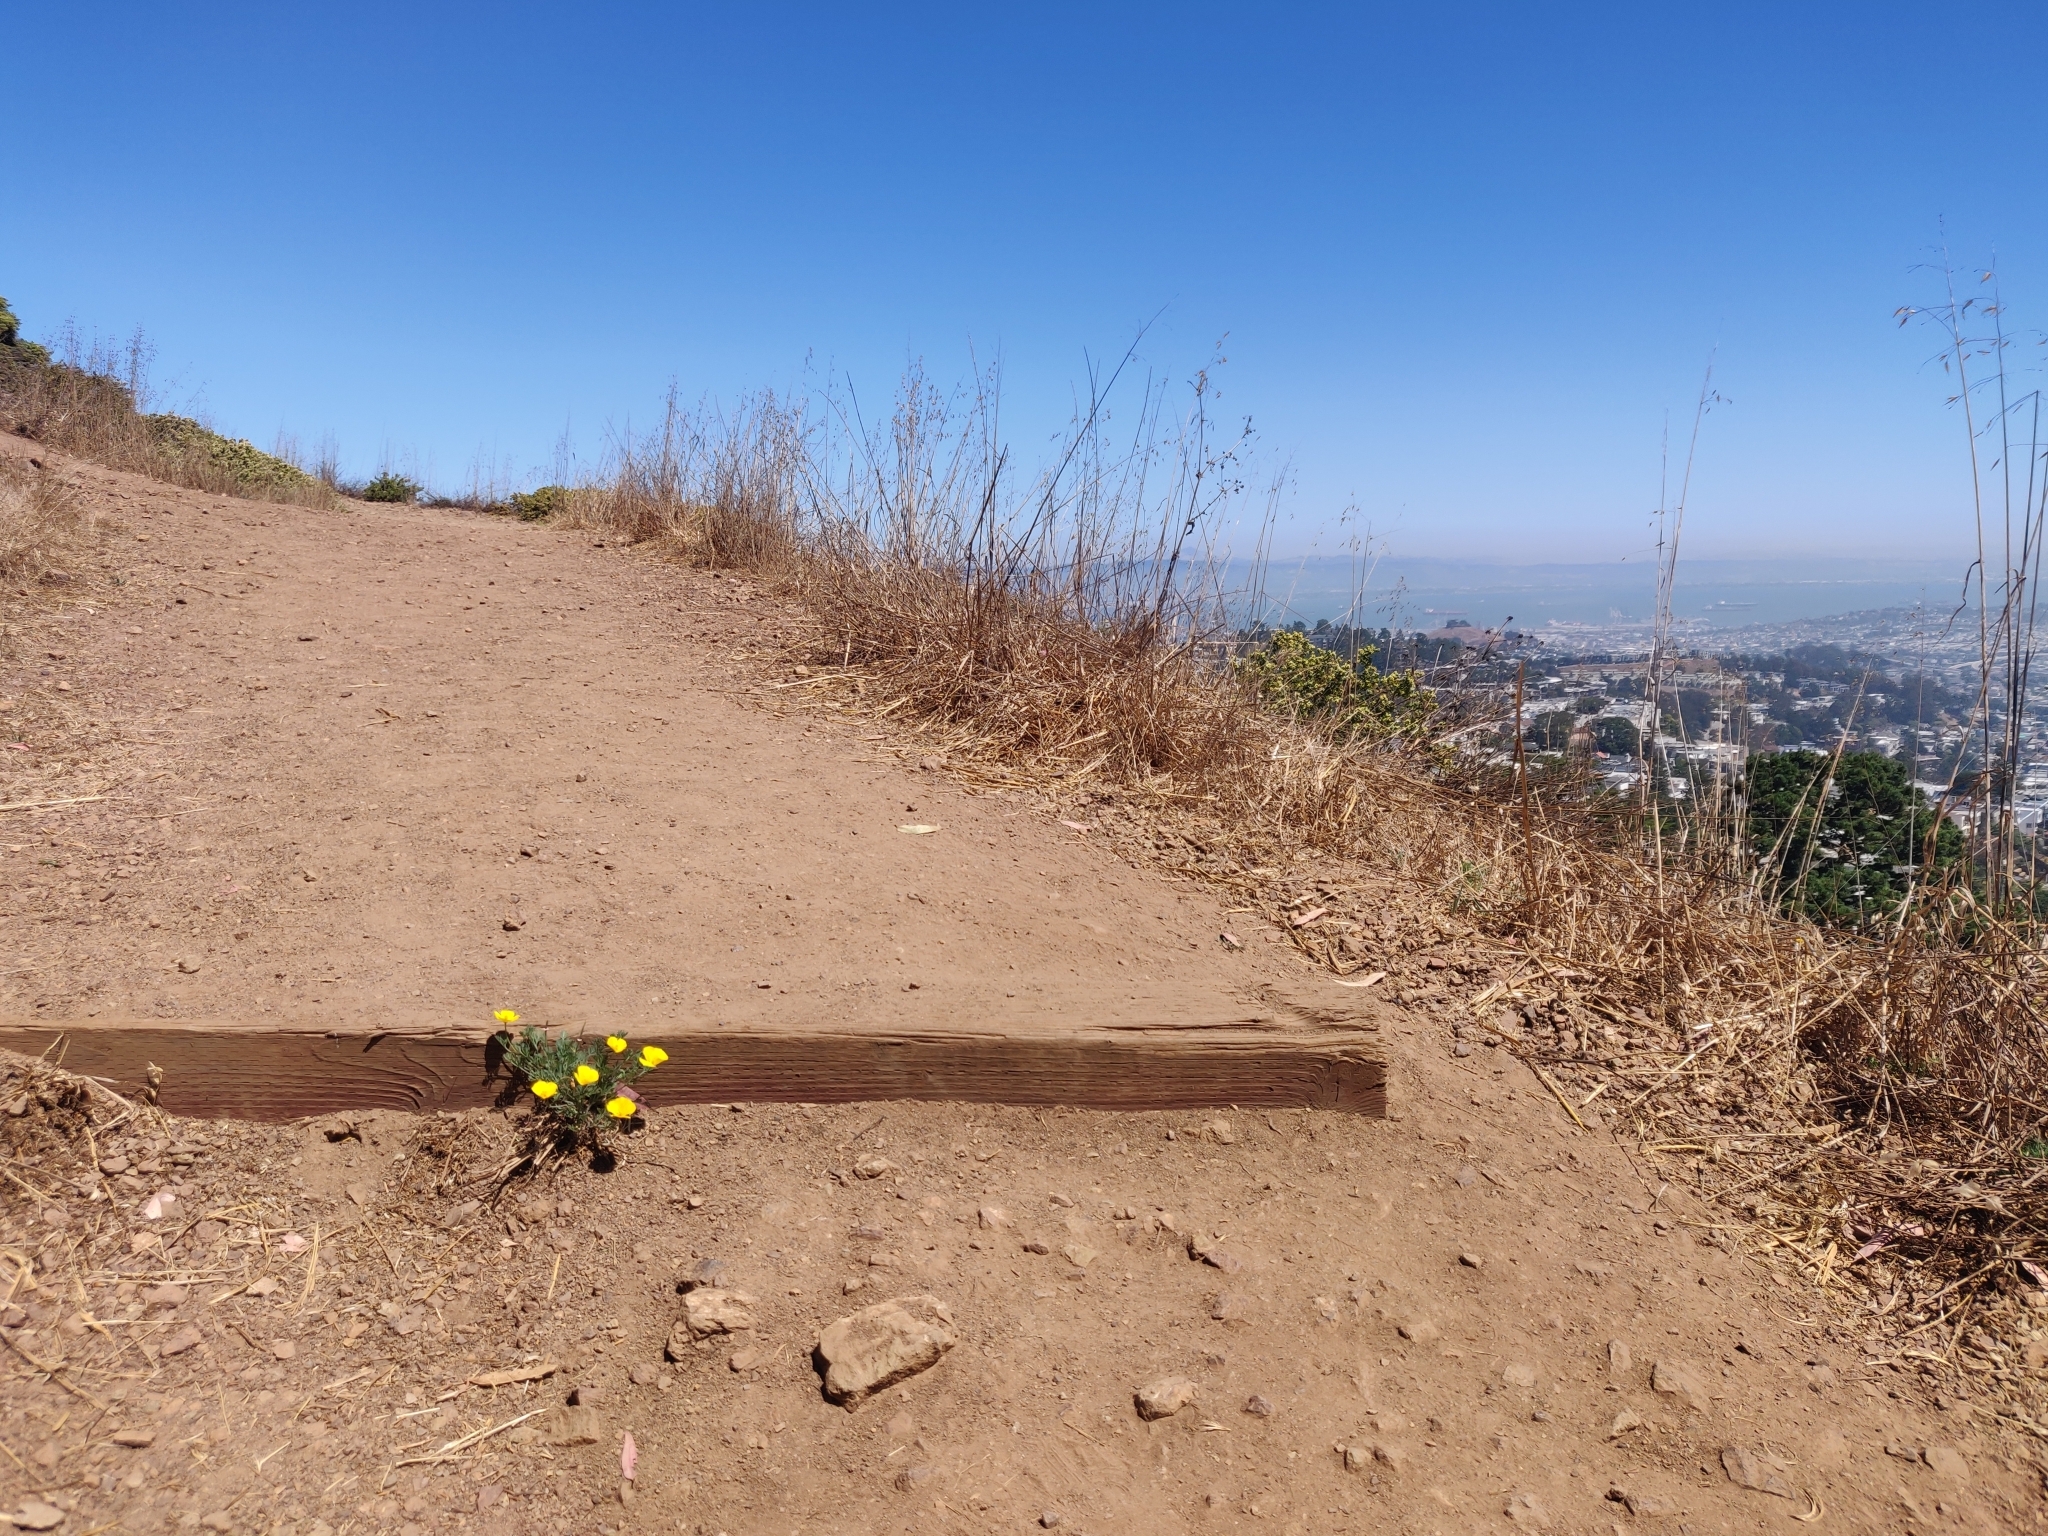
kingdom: Plantae
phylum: Tracheophyta
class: Magnoliopsida
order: Ranunculales
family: Papaveraceae
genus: Eschscholzia
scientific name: Eschscholzia californica
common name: California poppy
